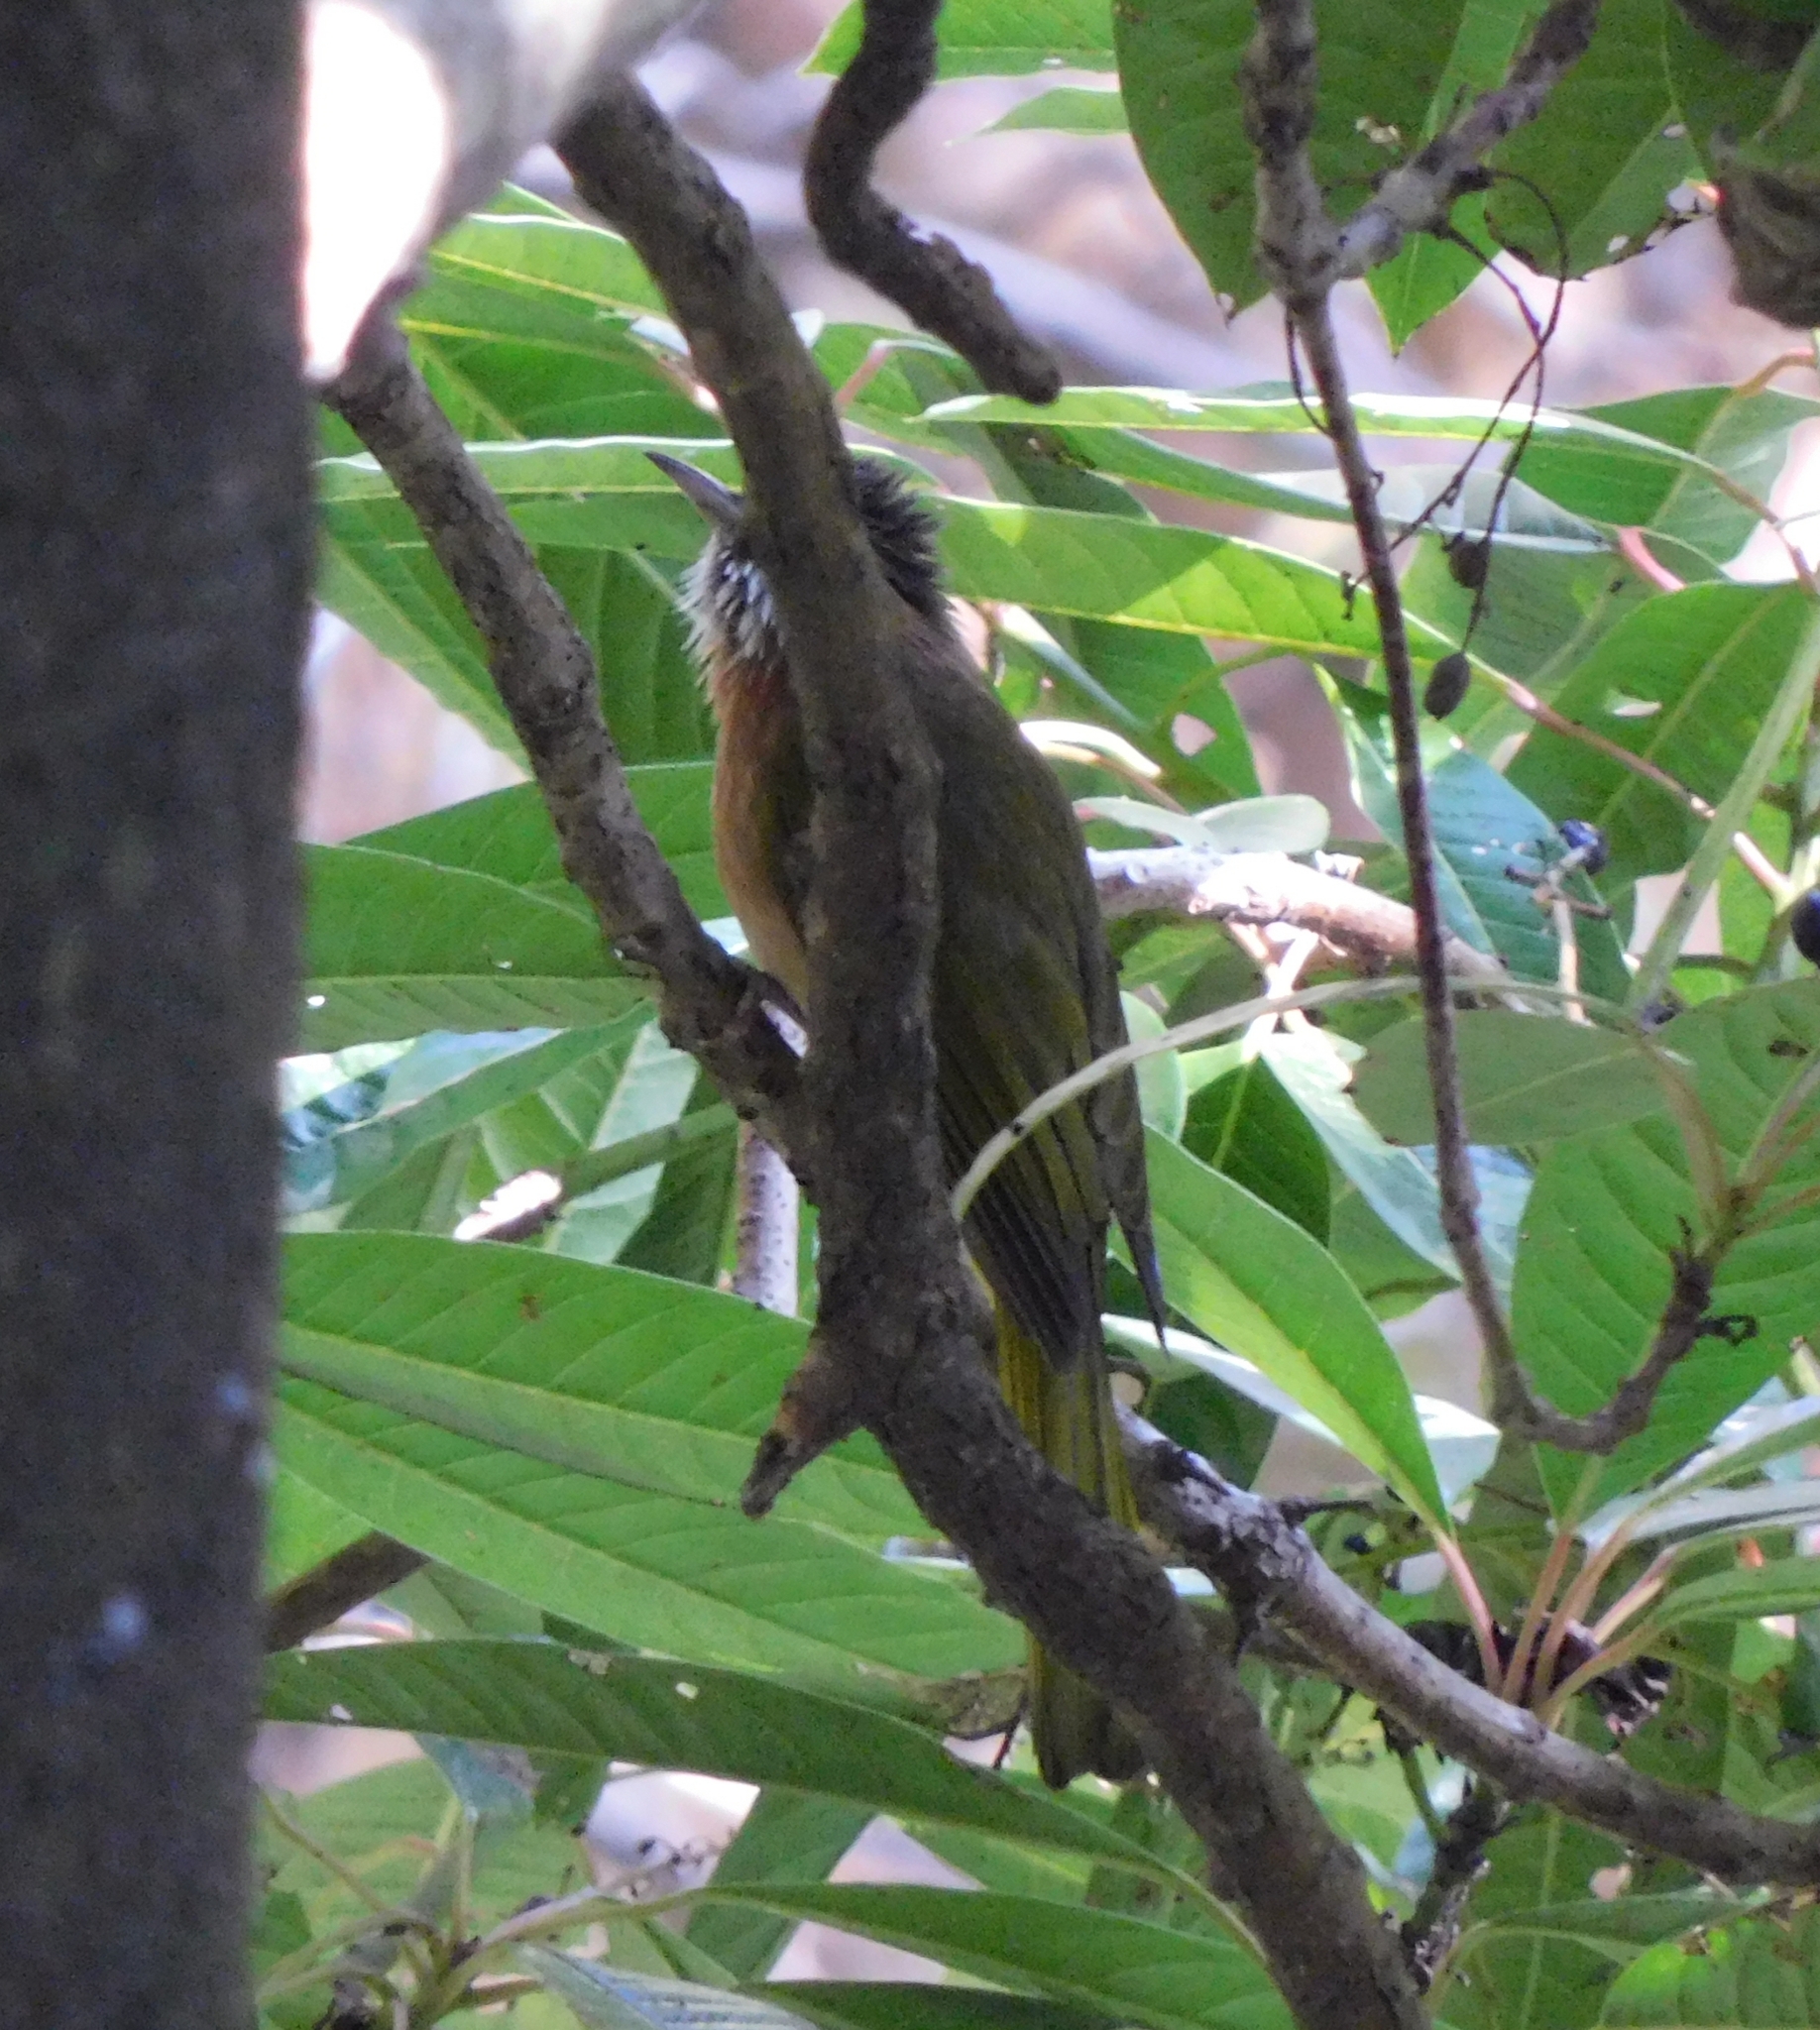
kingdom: Animalia
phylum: Chordata
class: Aves
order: Passeriformes
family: Pycnonotidae
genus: Ixos
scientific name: Ixos mcclellandii
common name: Mountain bulbul
